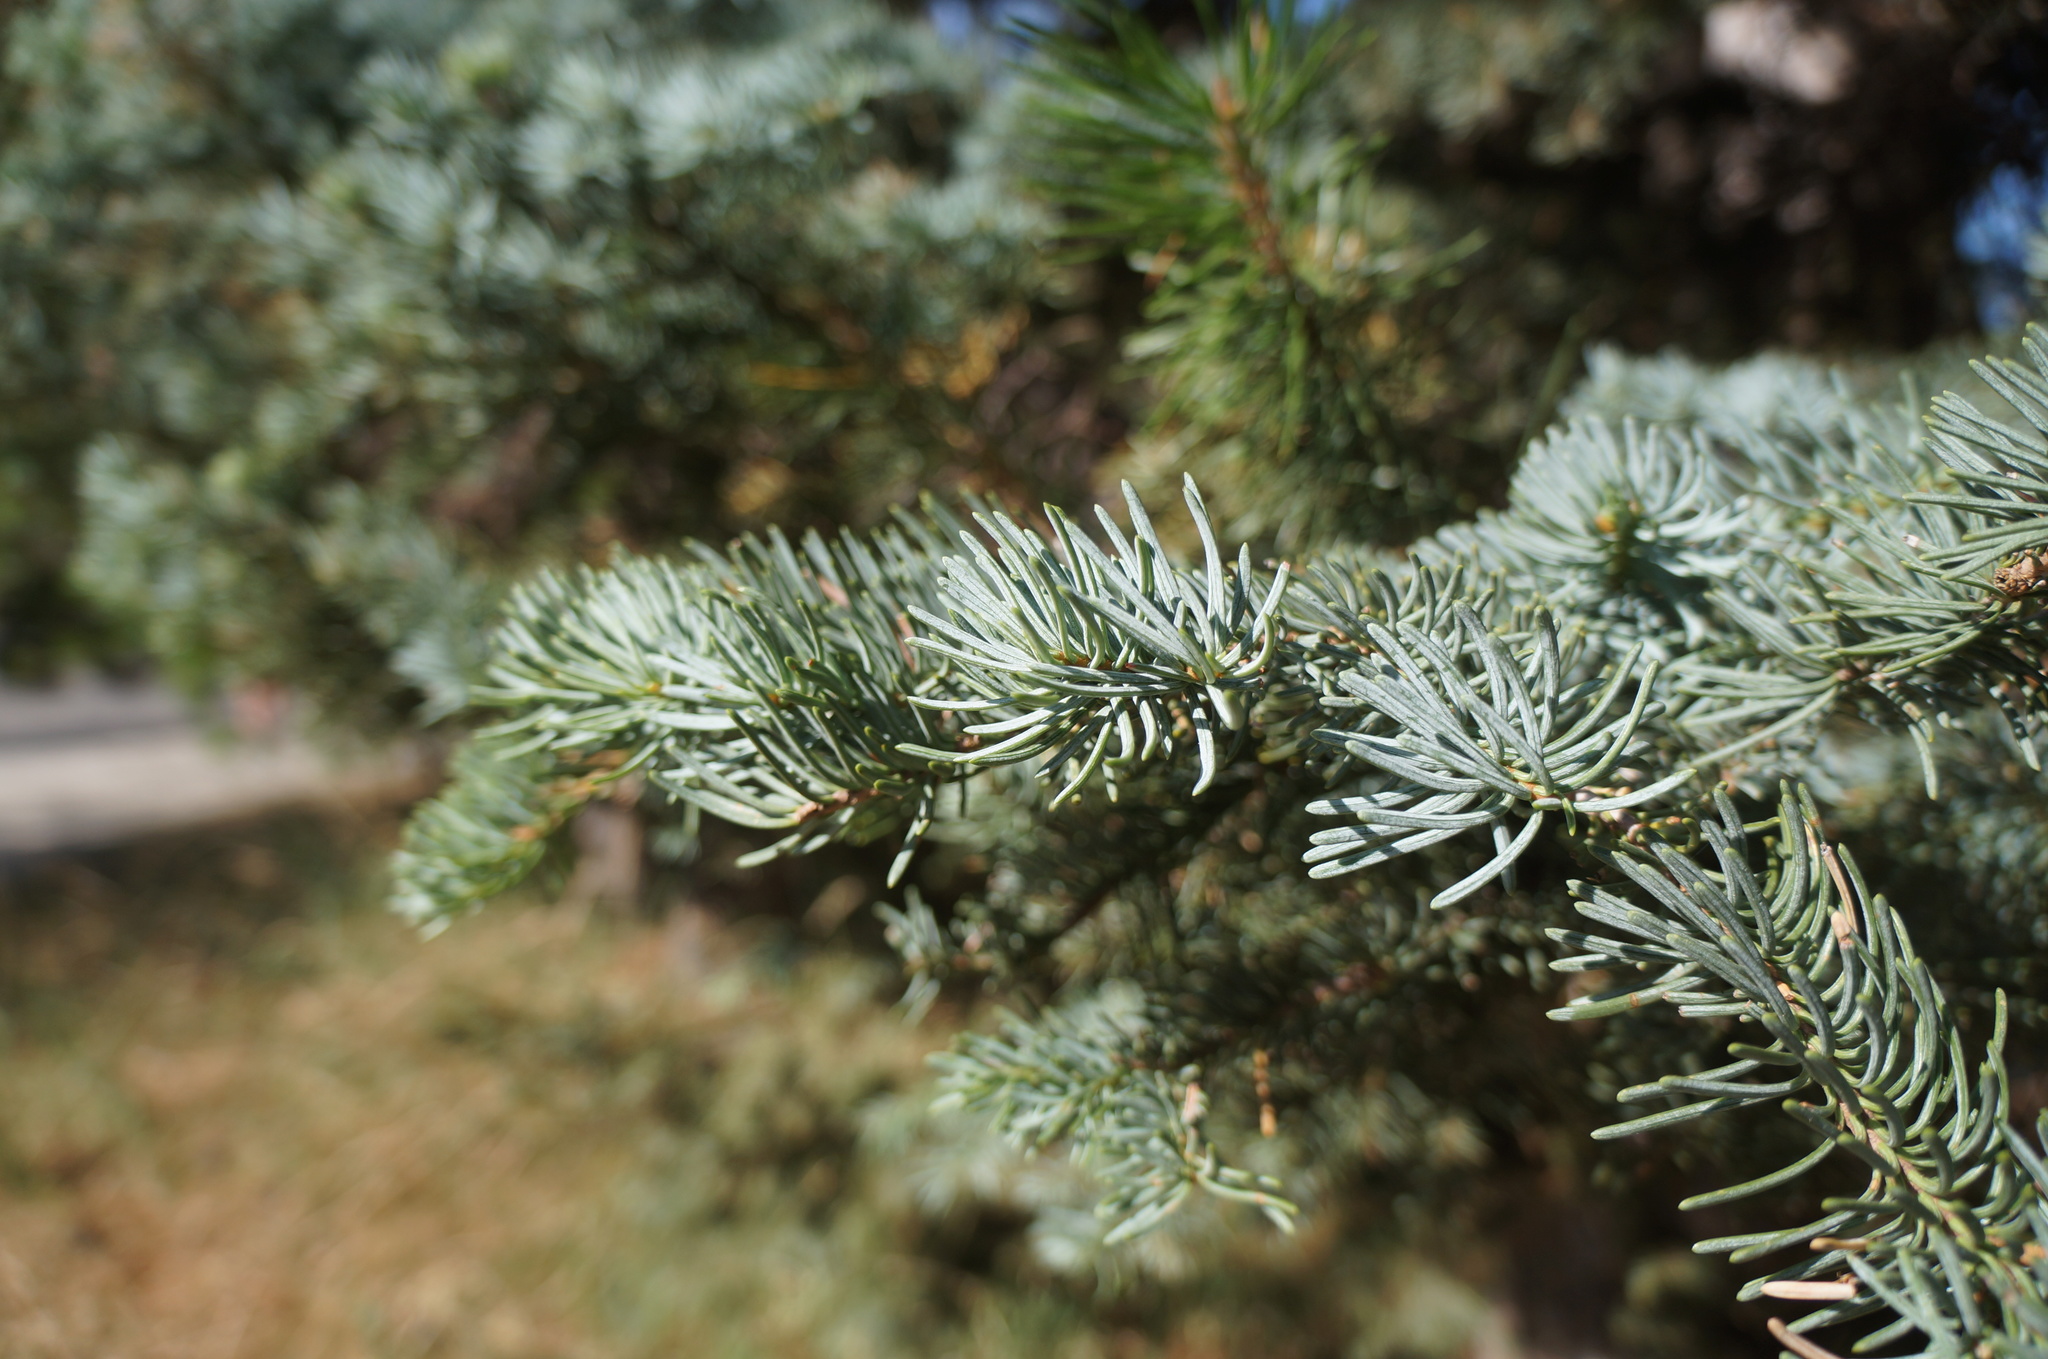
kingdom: Plantae
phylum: Tracheophyta
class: Pinopsida
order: Pinales
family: Pinaceae
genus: Abies
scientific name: Abies magnifica bis
